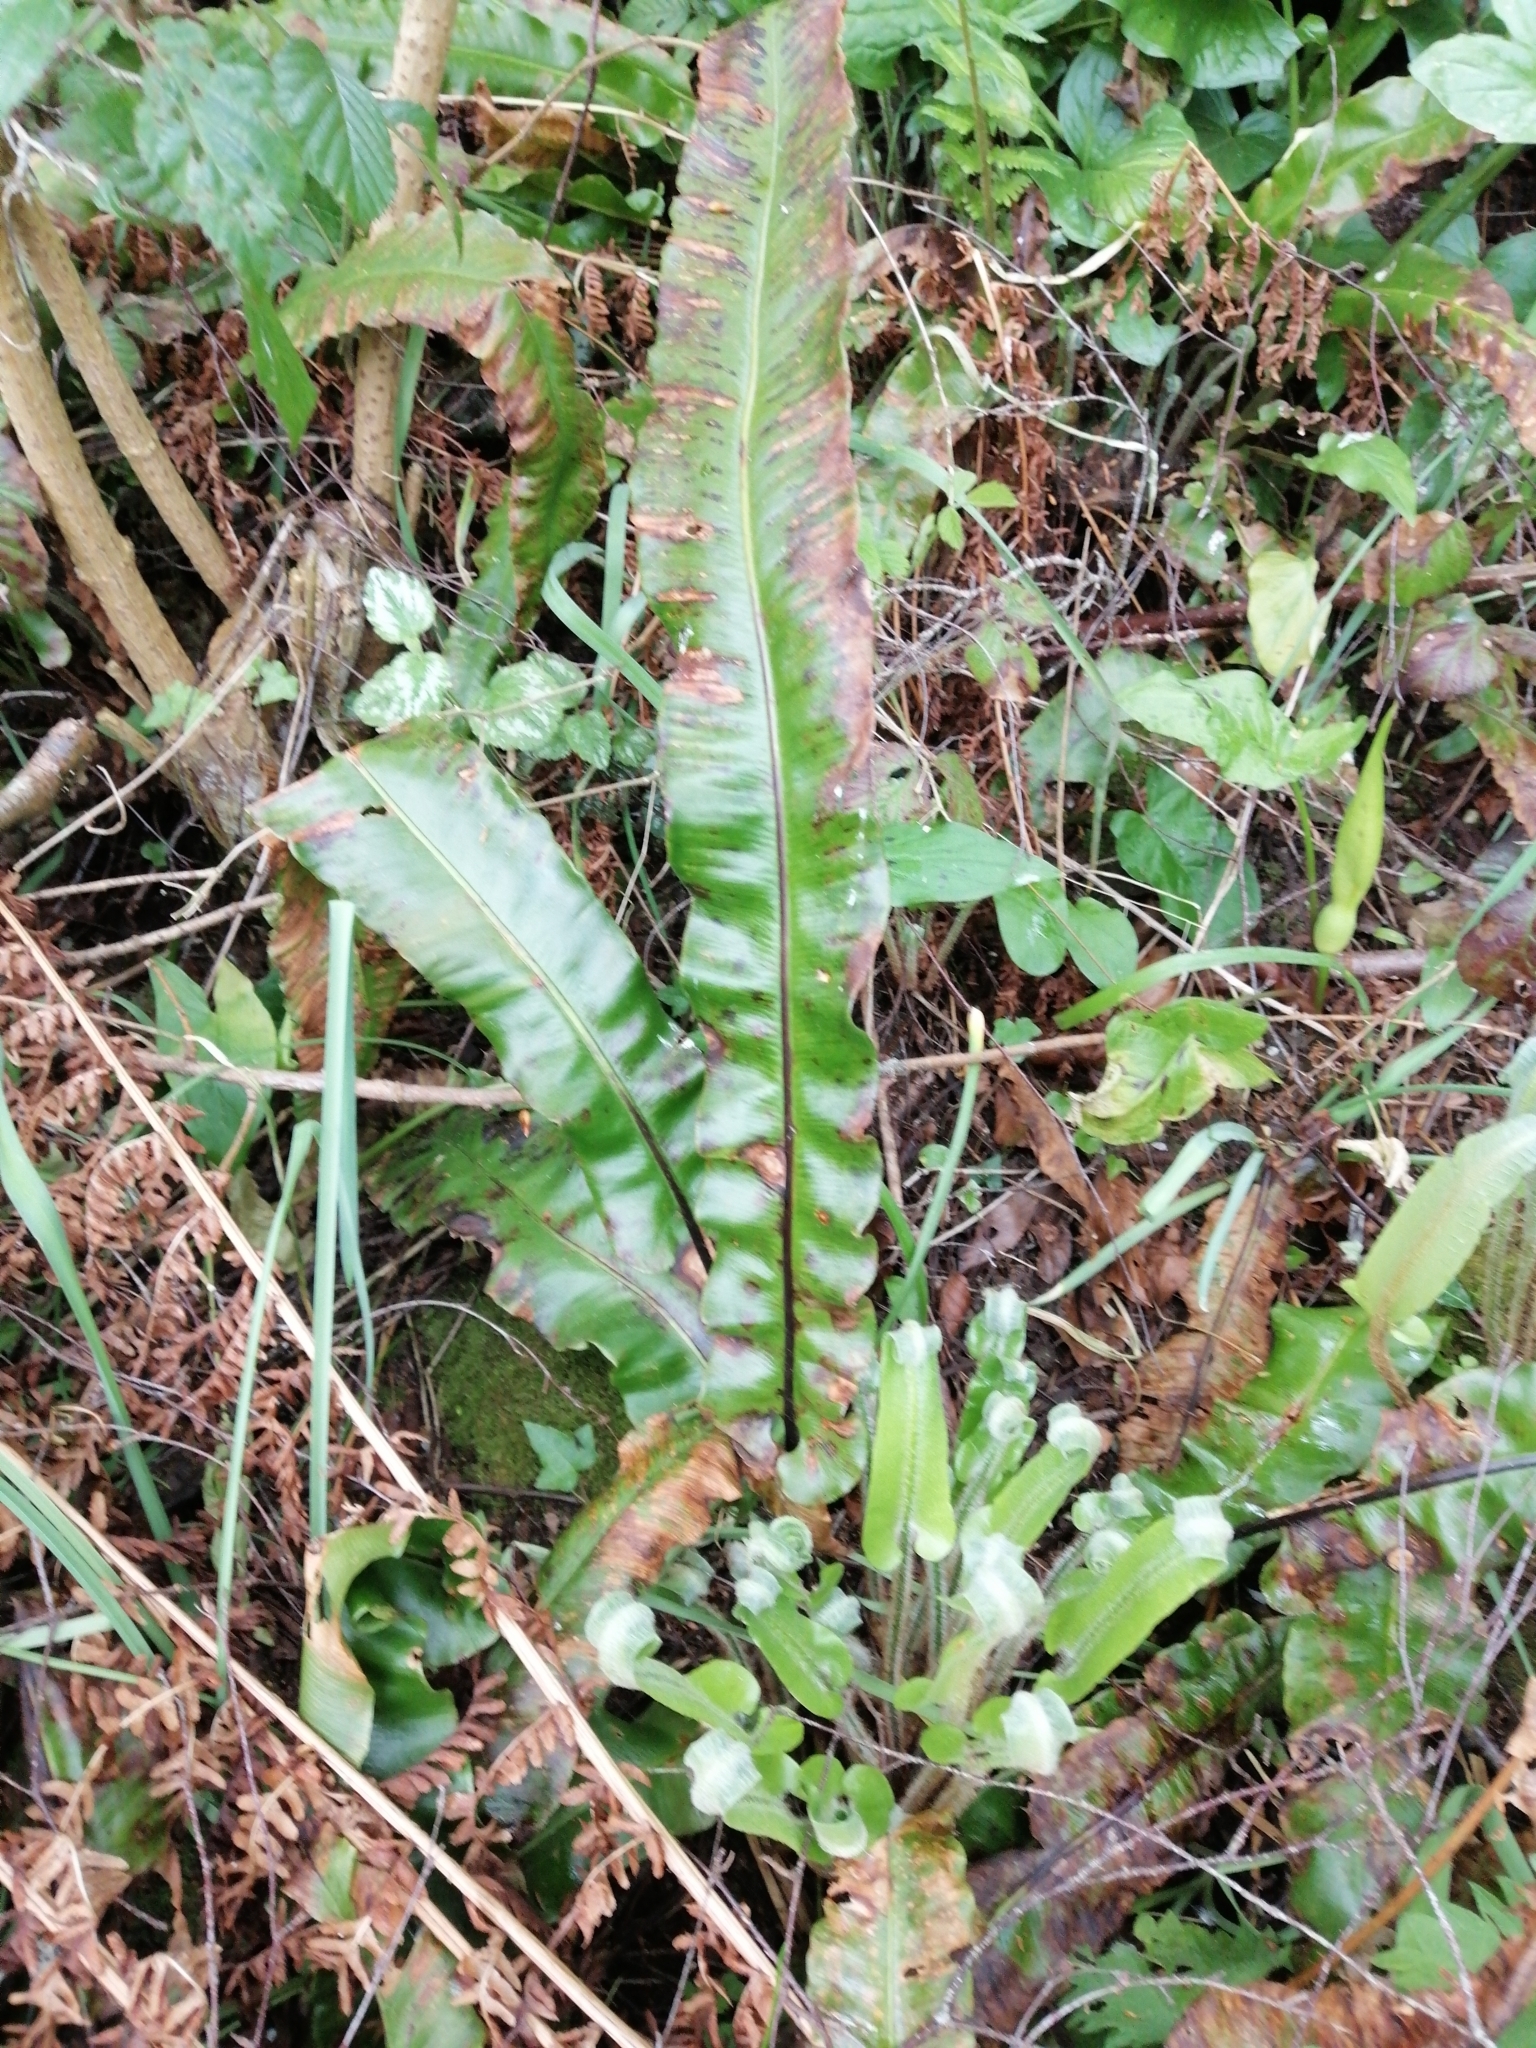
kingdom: Plantae
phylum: Tracheophyta
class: Polypodiopsida
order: Polypodiales
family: Aspleniaceae
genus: Asplenium
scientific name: Asplenium scolopendrium
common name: Hart's-tongue fern
